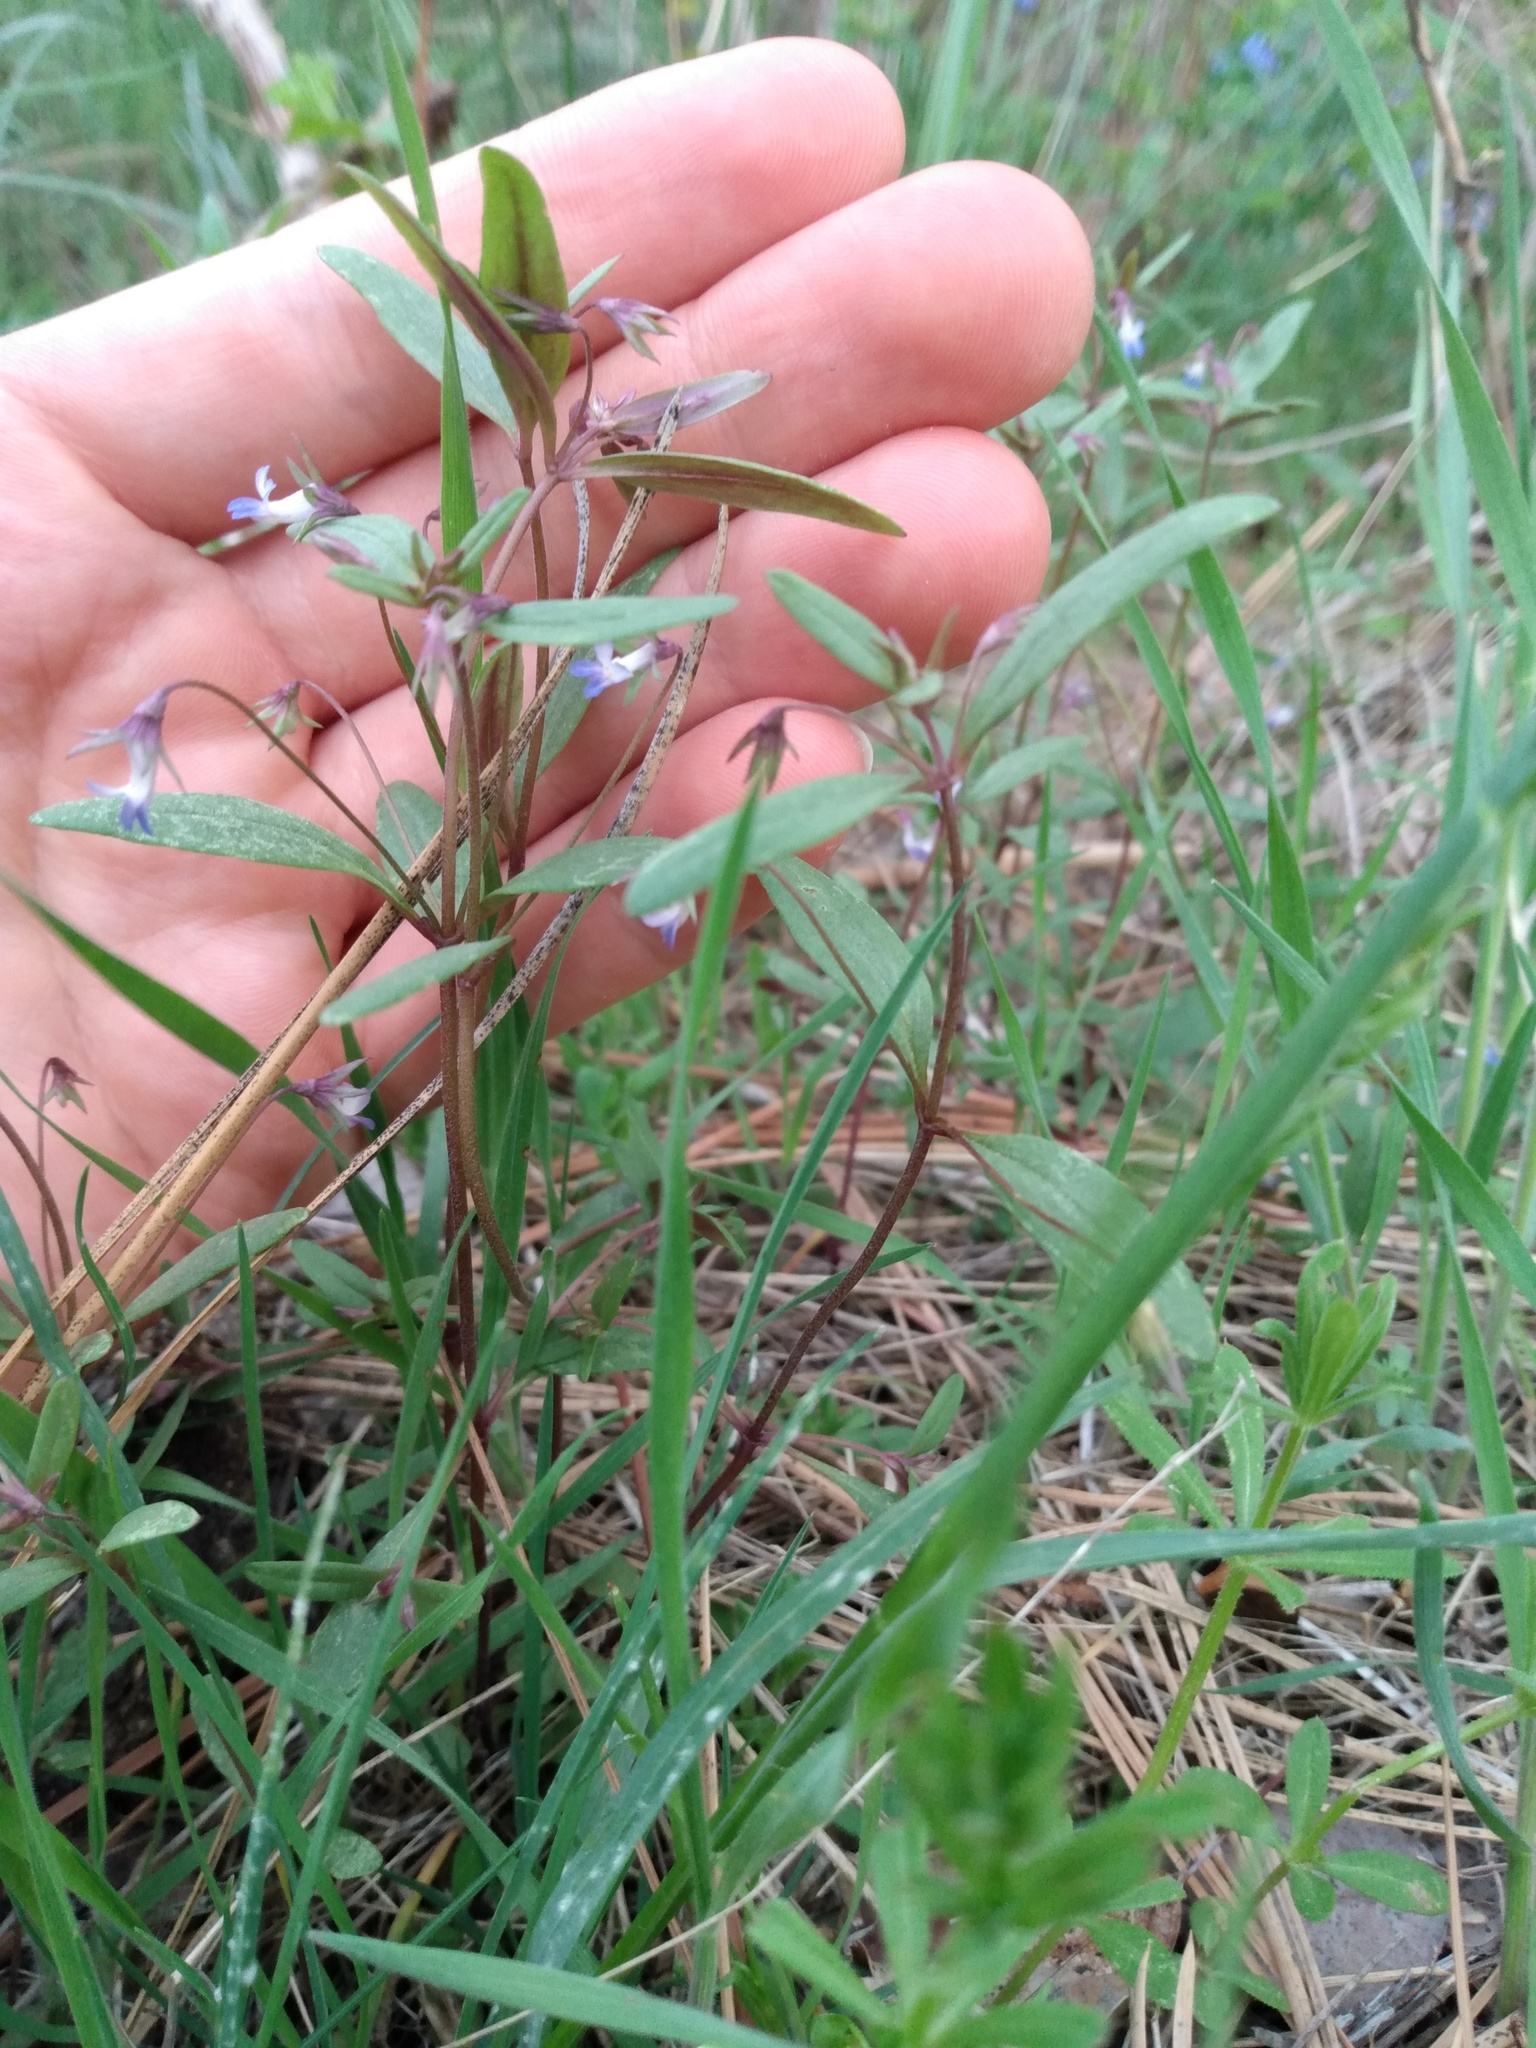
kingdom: Plantae
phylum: Tracheophyta
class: Magnoliopsida
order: Lamiales
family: Plantaginaceae
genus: Collinsia
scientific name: Collinsia parviflora
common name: Blue-lips
